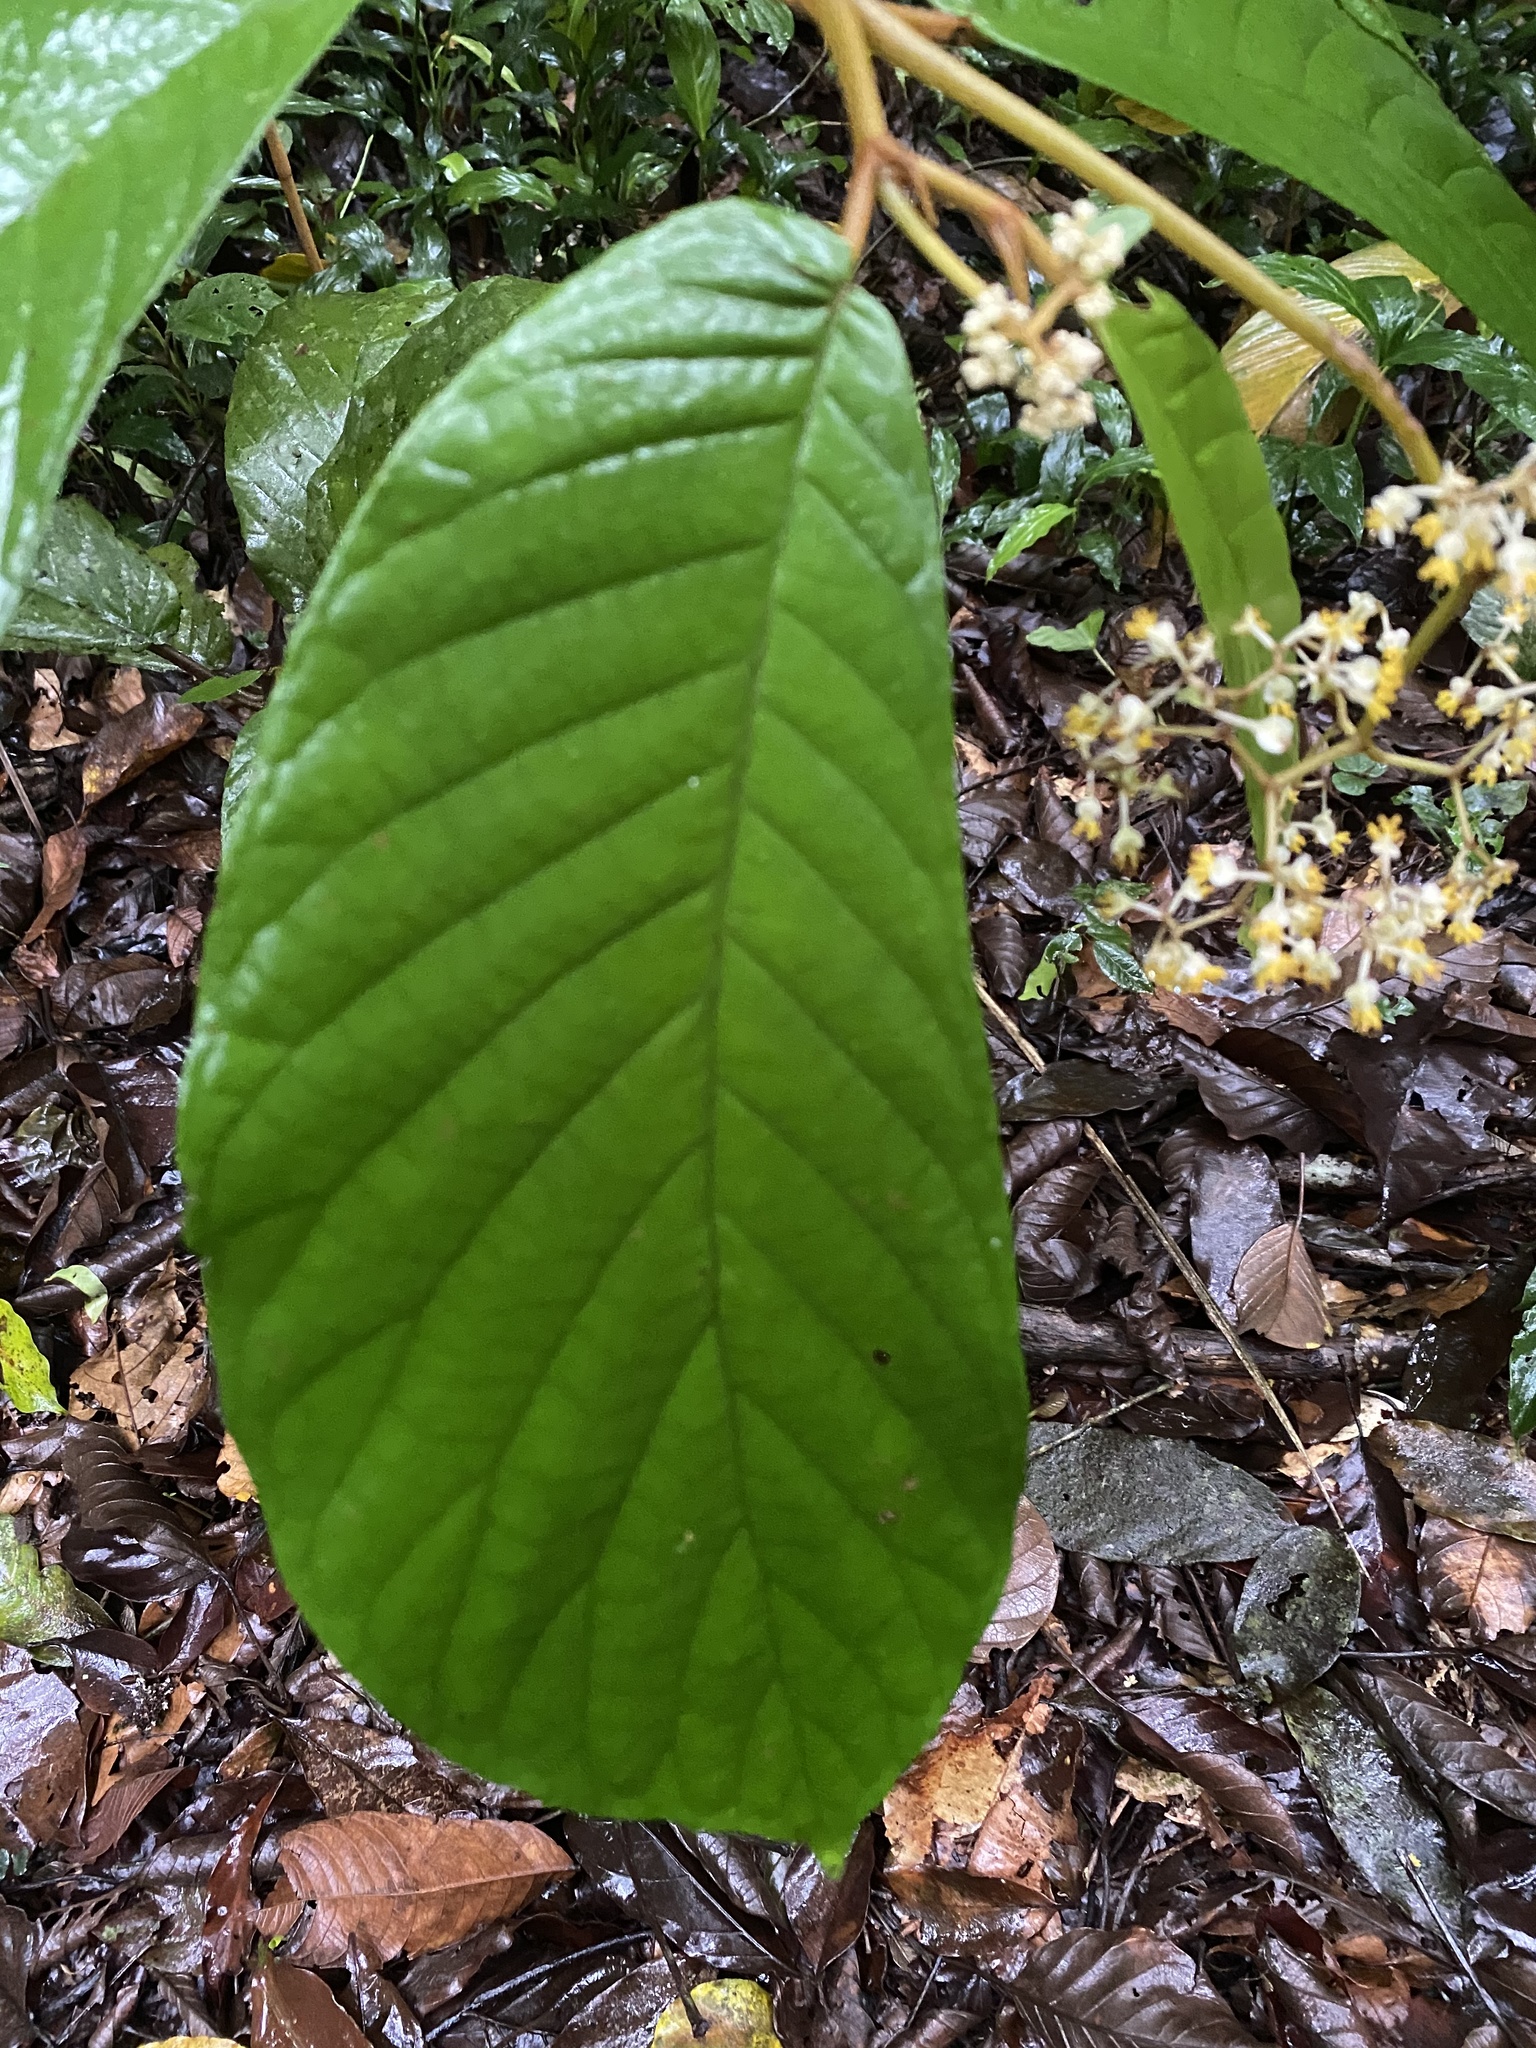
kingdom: Plantae
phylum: Tracheophyta
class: Magnoliopsida
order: Cucurbitales
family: Begoniaceae
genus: Begonia
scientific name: Begonia hookeriana
